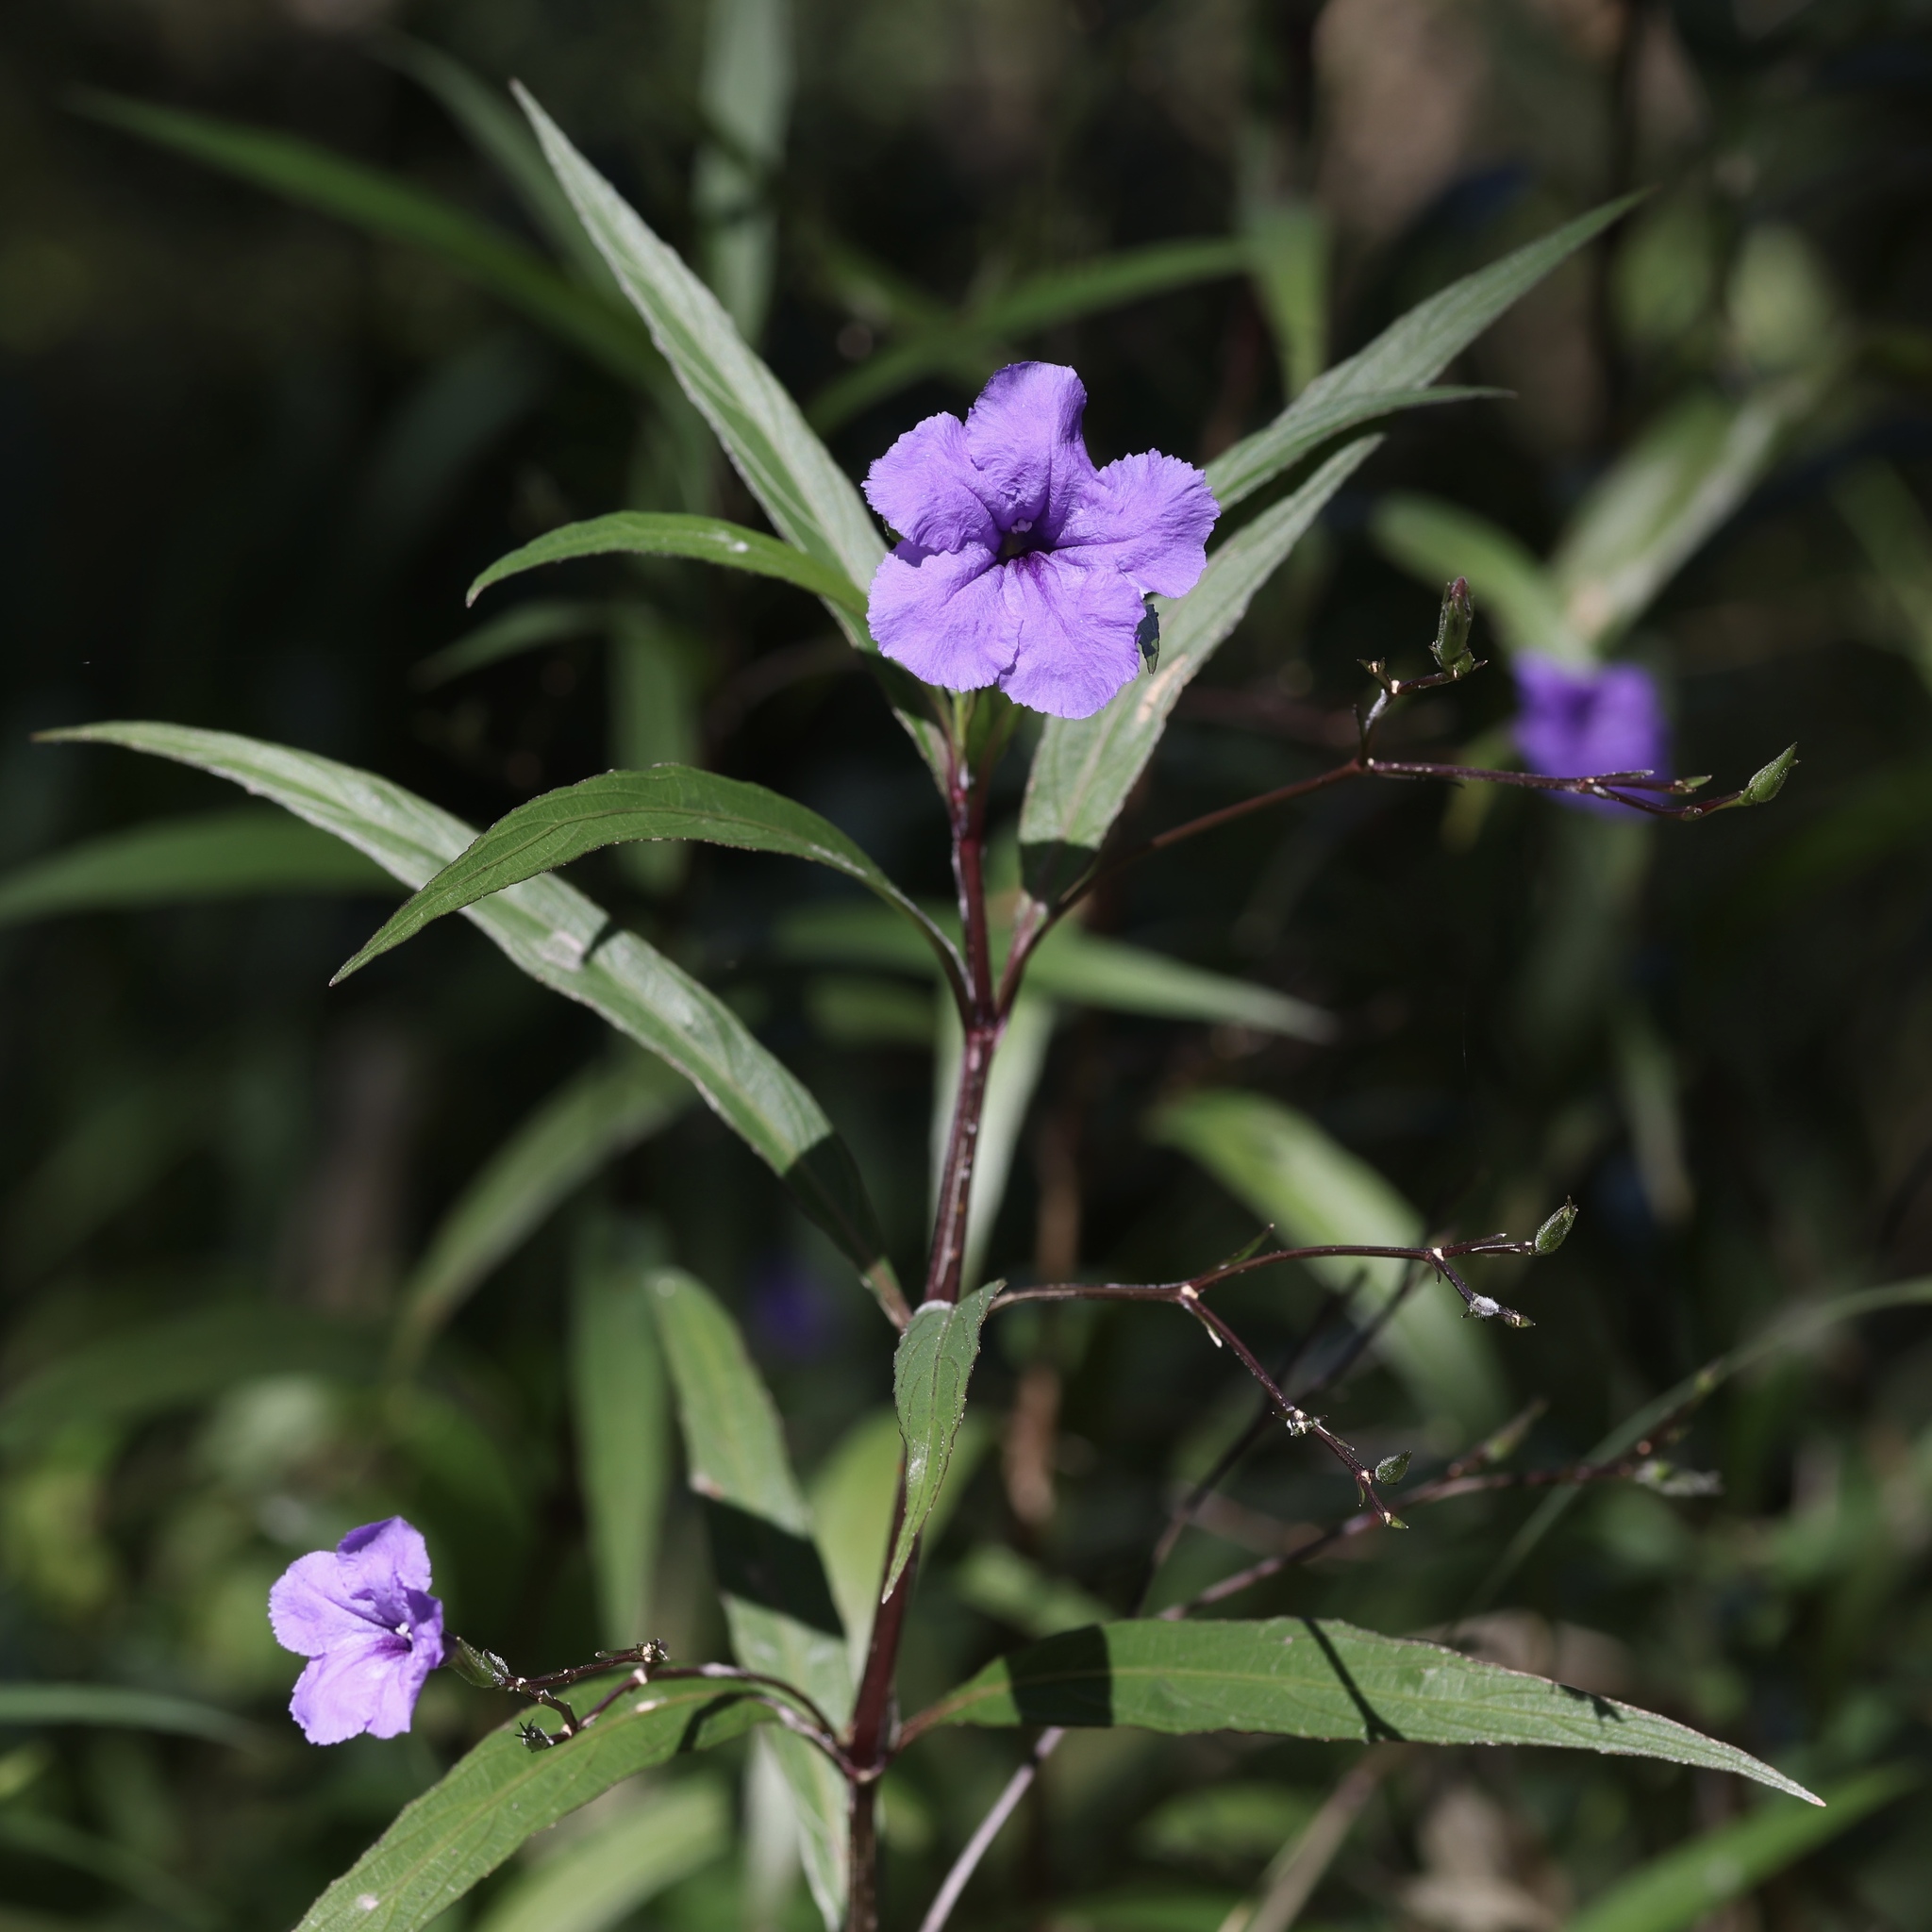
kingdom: Plantae
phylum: Tracheophyta
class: Magnoliopsida
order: Lamiales
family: Acanthaceae
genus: Ruellia
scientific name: Ruellia simplex
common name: Softseed wild petunia
